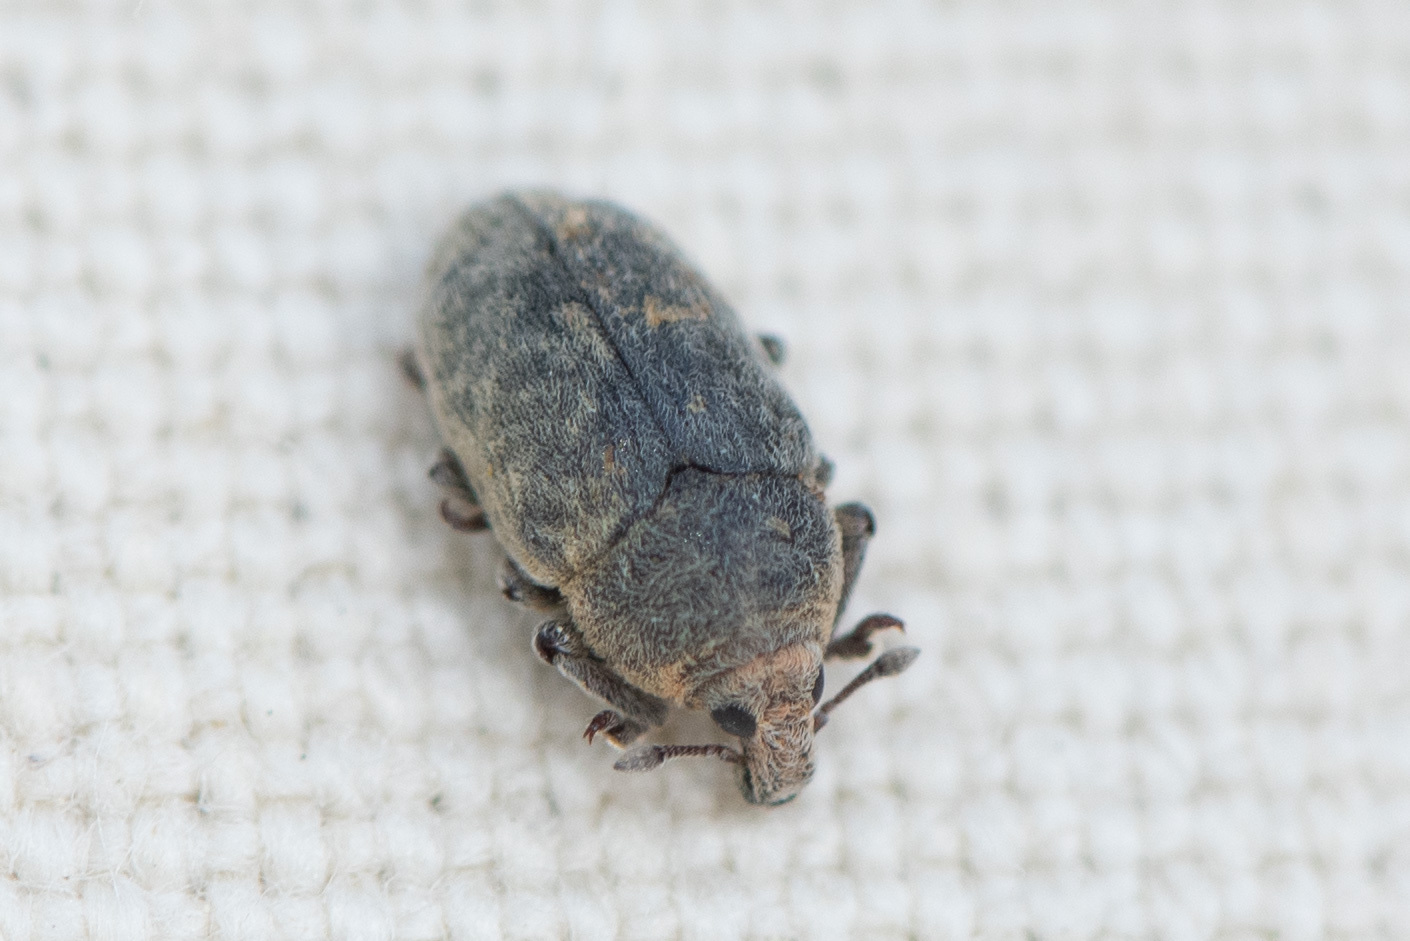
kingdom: Animalia
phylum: Arthropoda
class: Insecta
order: Coleoptera
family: Curculionidae
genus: Larinus
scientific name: Larinus minutus
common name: Weevil
